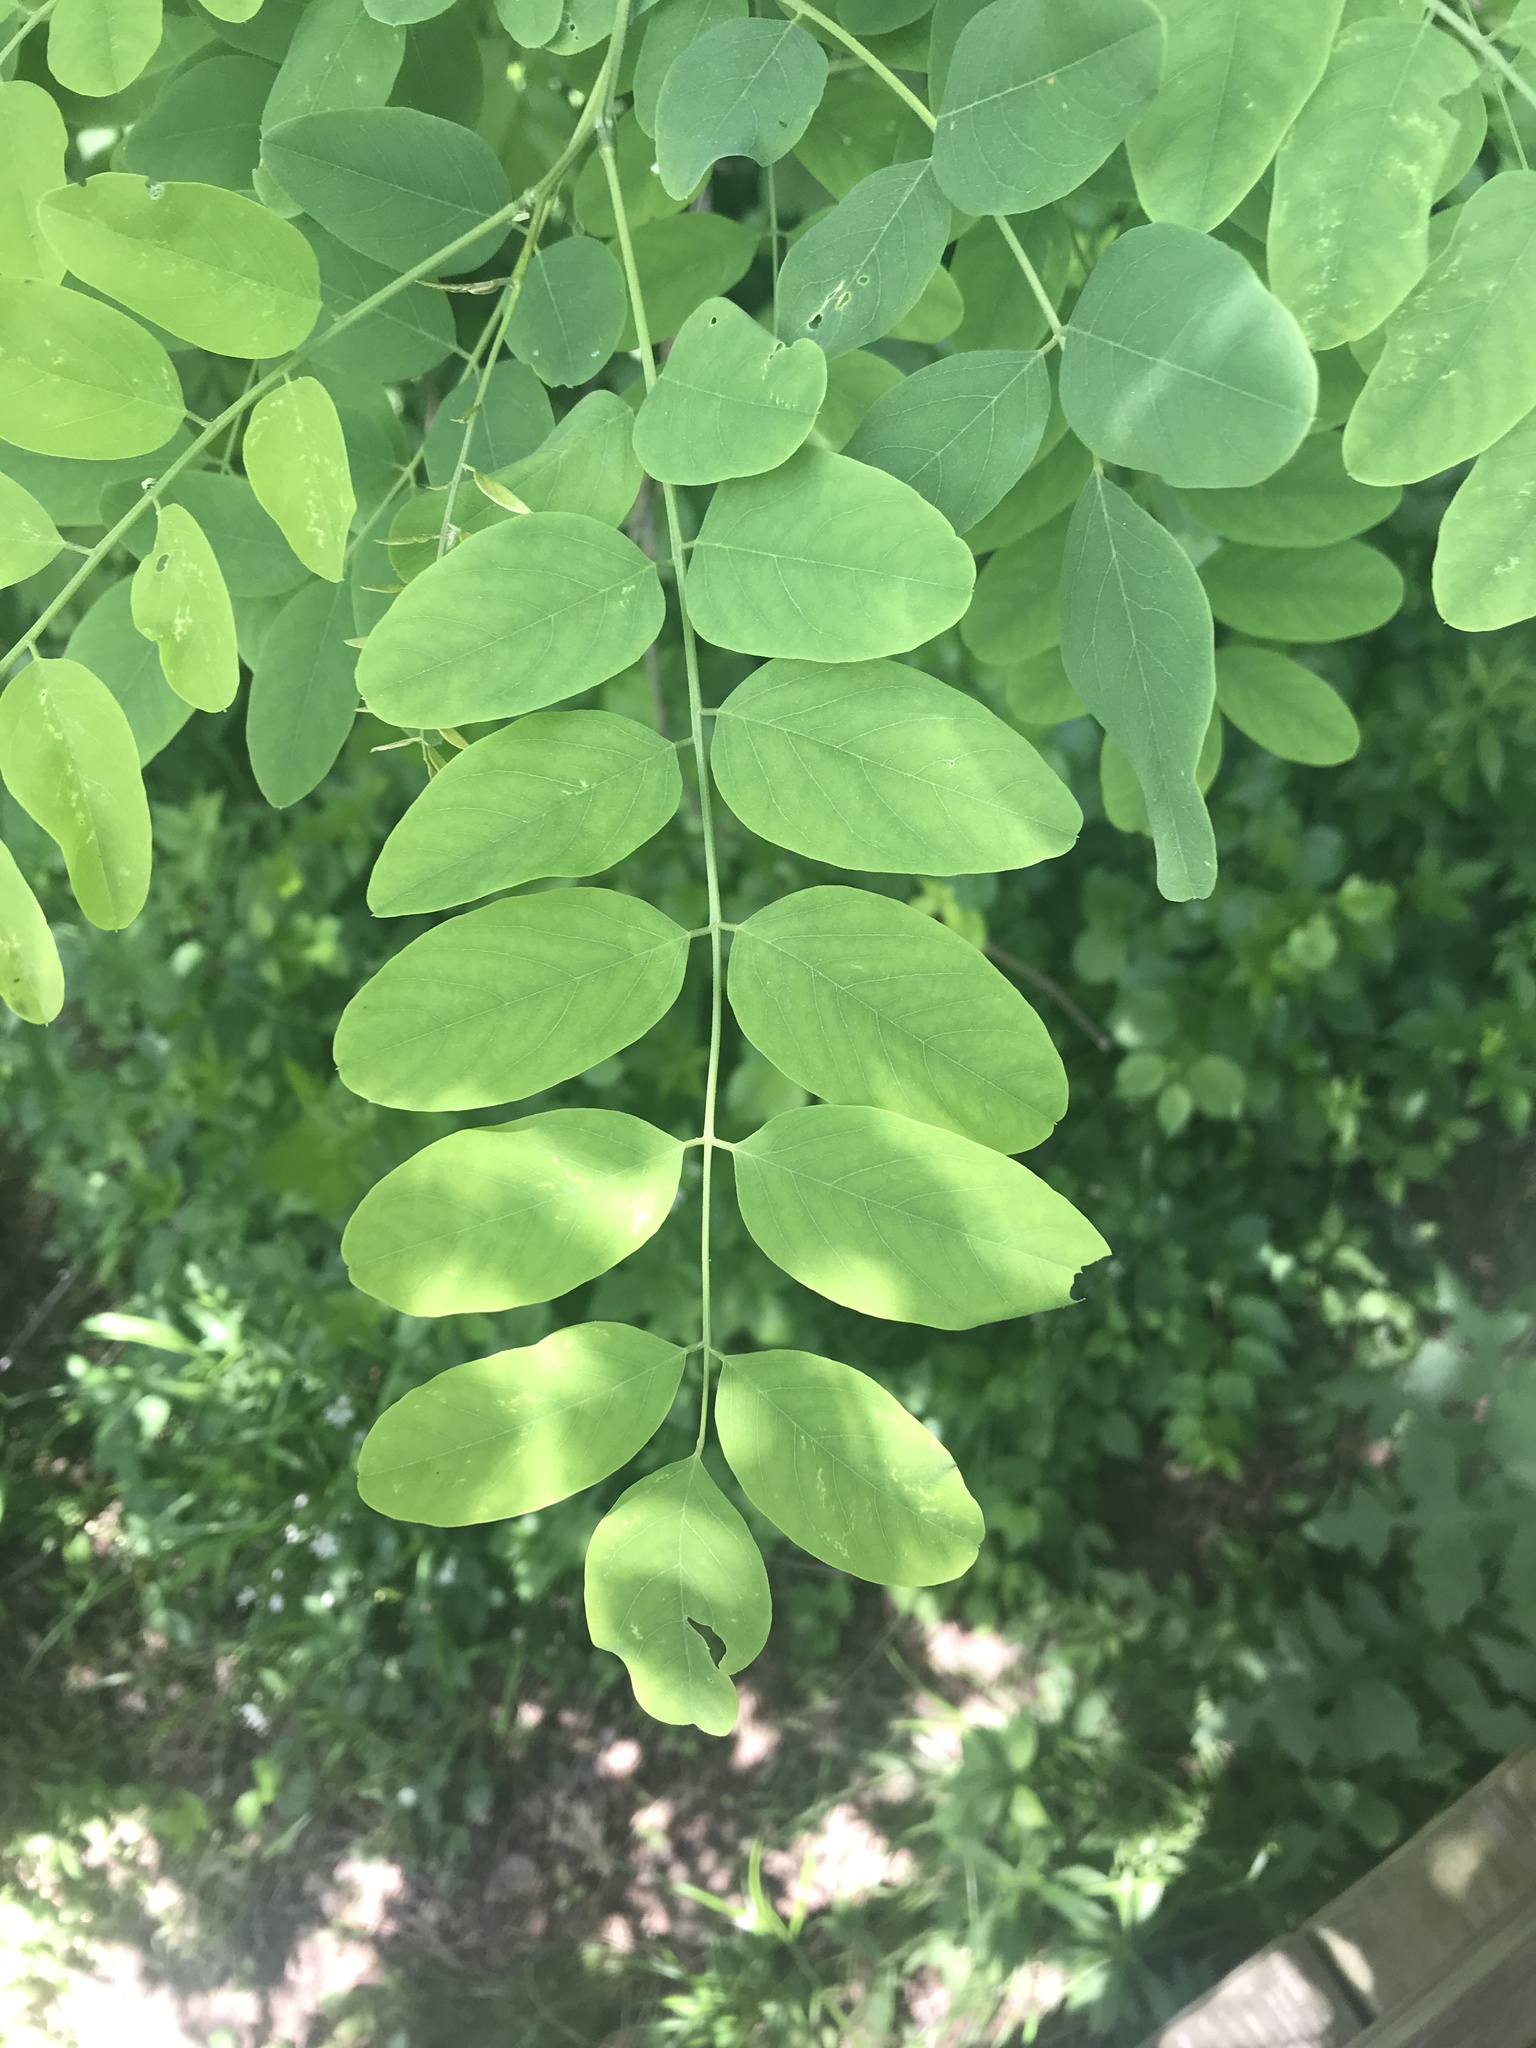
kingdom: Plantae
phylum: Tracheophyta
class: Magnoliopsida
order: Fabales
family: Fabaceae
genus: Robinia
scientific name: Robinia pseudoacacia
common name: Black locust
